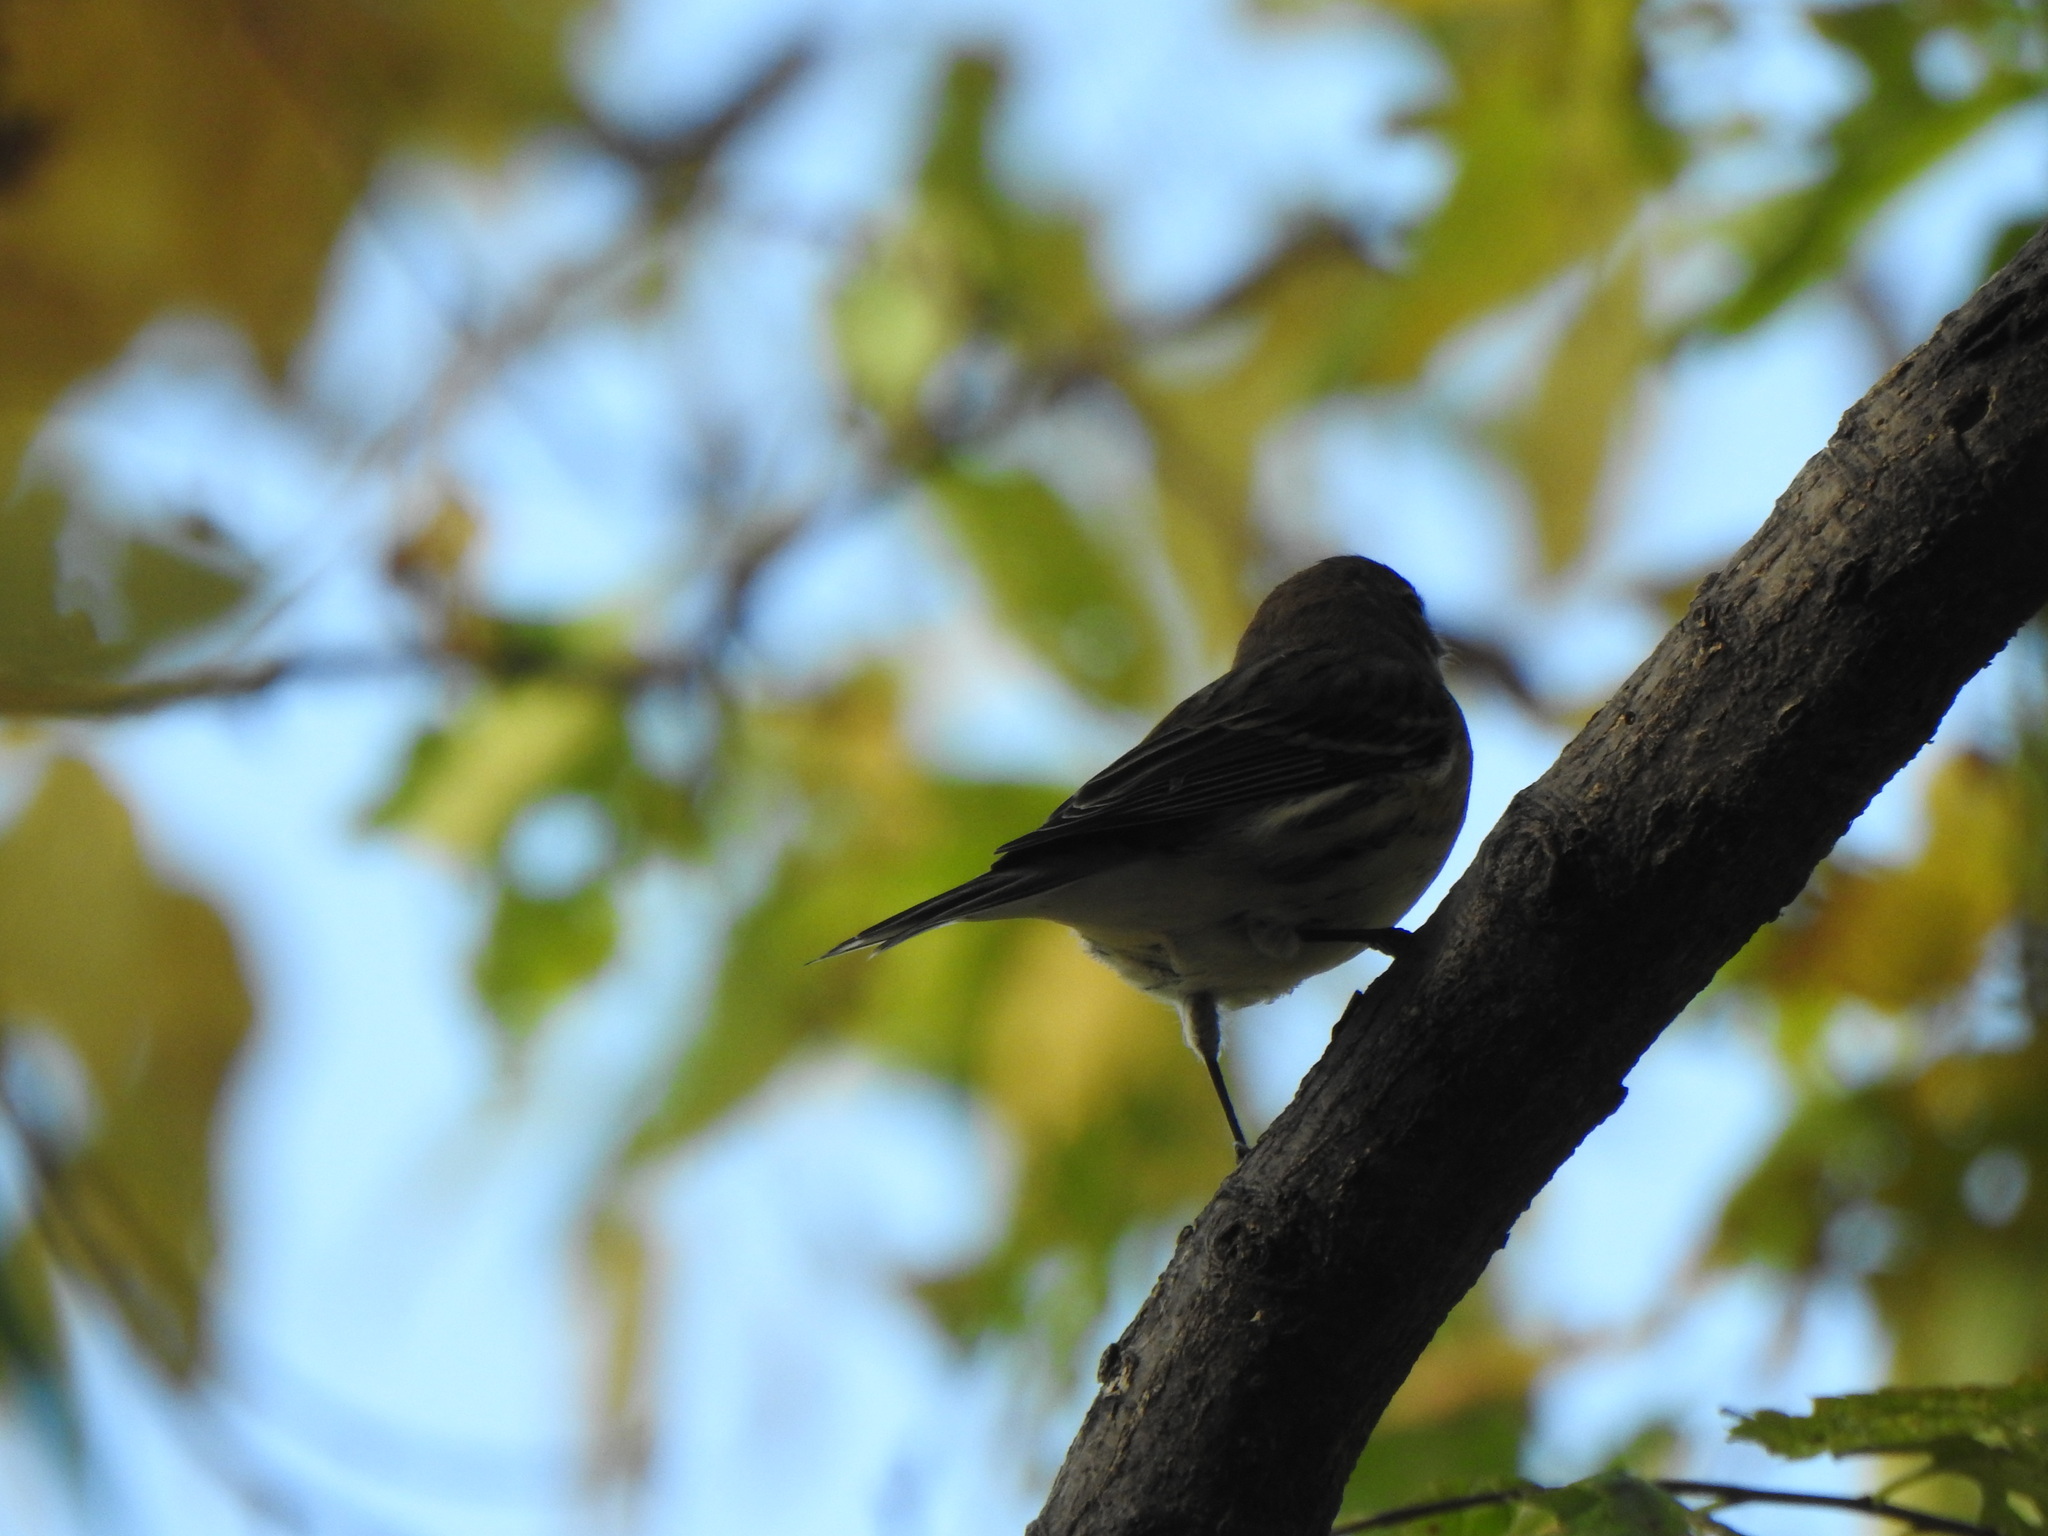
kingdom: Animalia
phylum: Chordata
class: Aves
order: Passeriformes
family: Parulidae
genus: Setophaga
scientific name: Setophaga coronata
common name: Myrtle warbler
